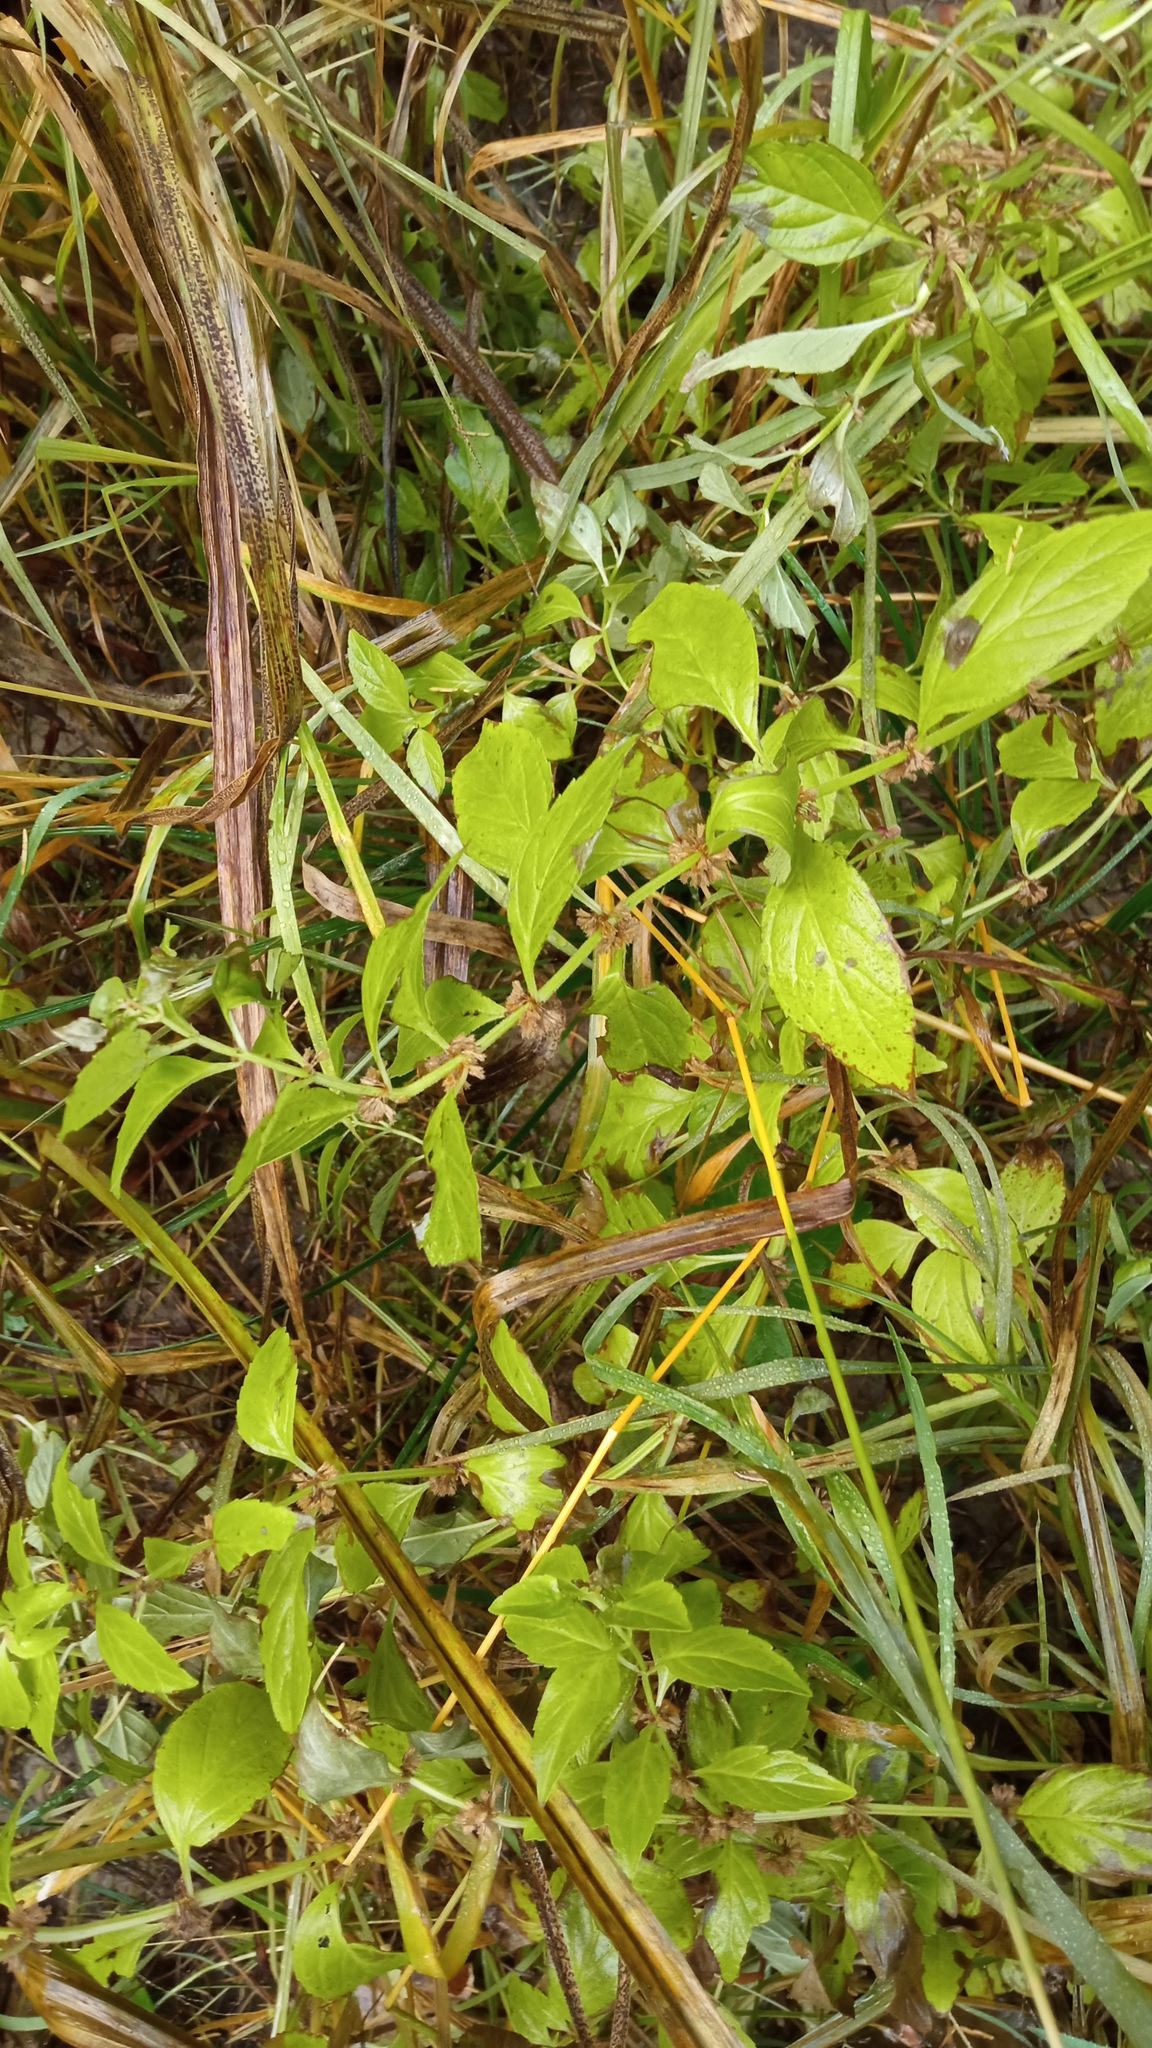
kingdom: Plantae
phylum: Tracheophyta
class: Magnoliopsida
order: Lamiales
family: Lamiaceae
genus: Mentha
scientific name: Mentha arvensis
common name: Corn mint
